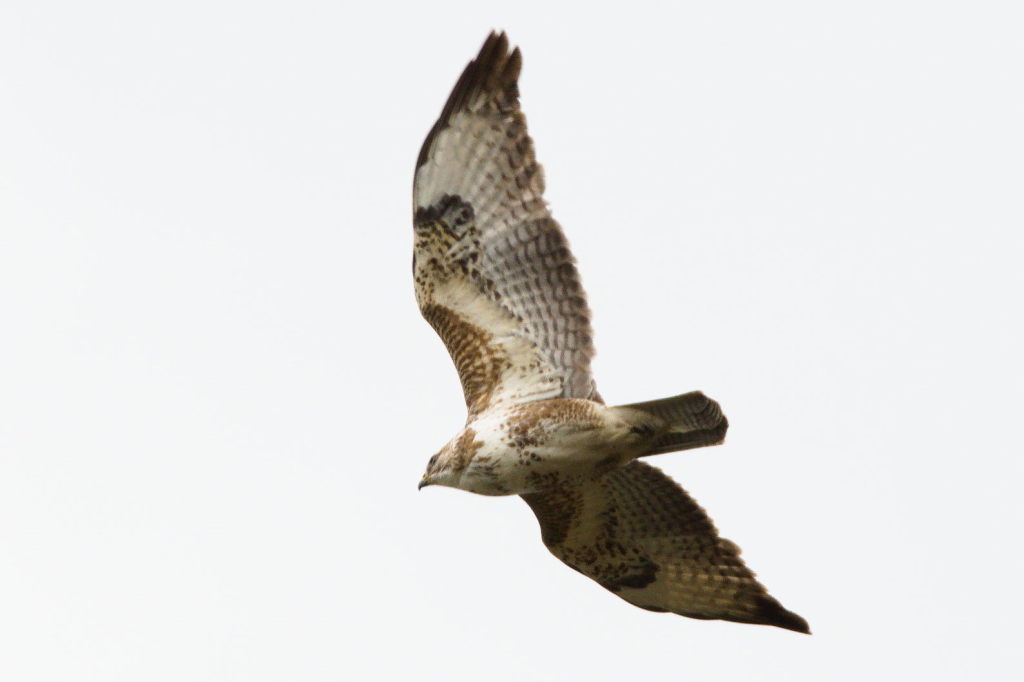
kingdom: Animalia
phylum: Chordata
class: Aves
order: Accipitriformes
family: Accipitridae
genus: Buteo
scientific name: Buteo buteo
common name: Common buzzard
